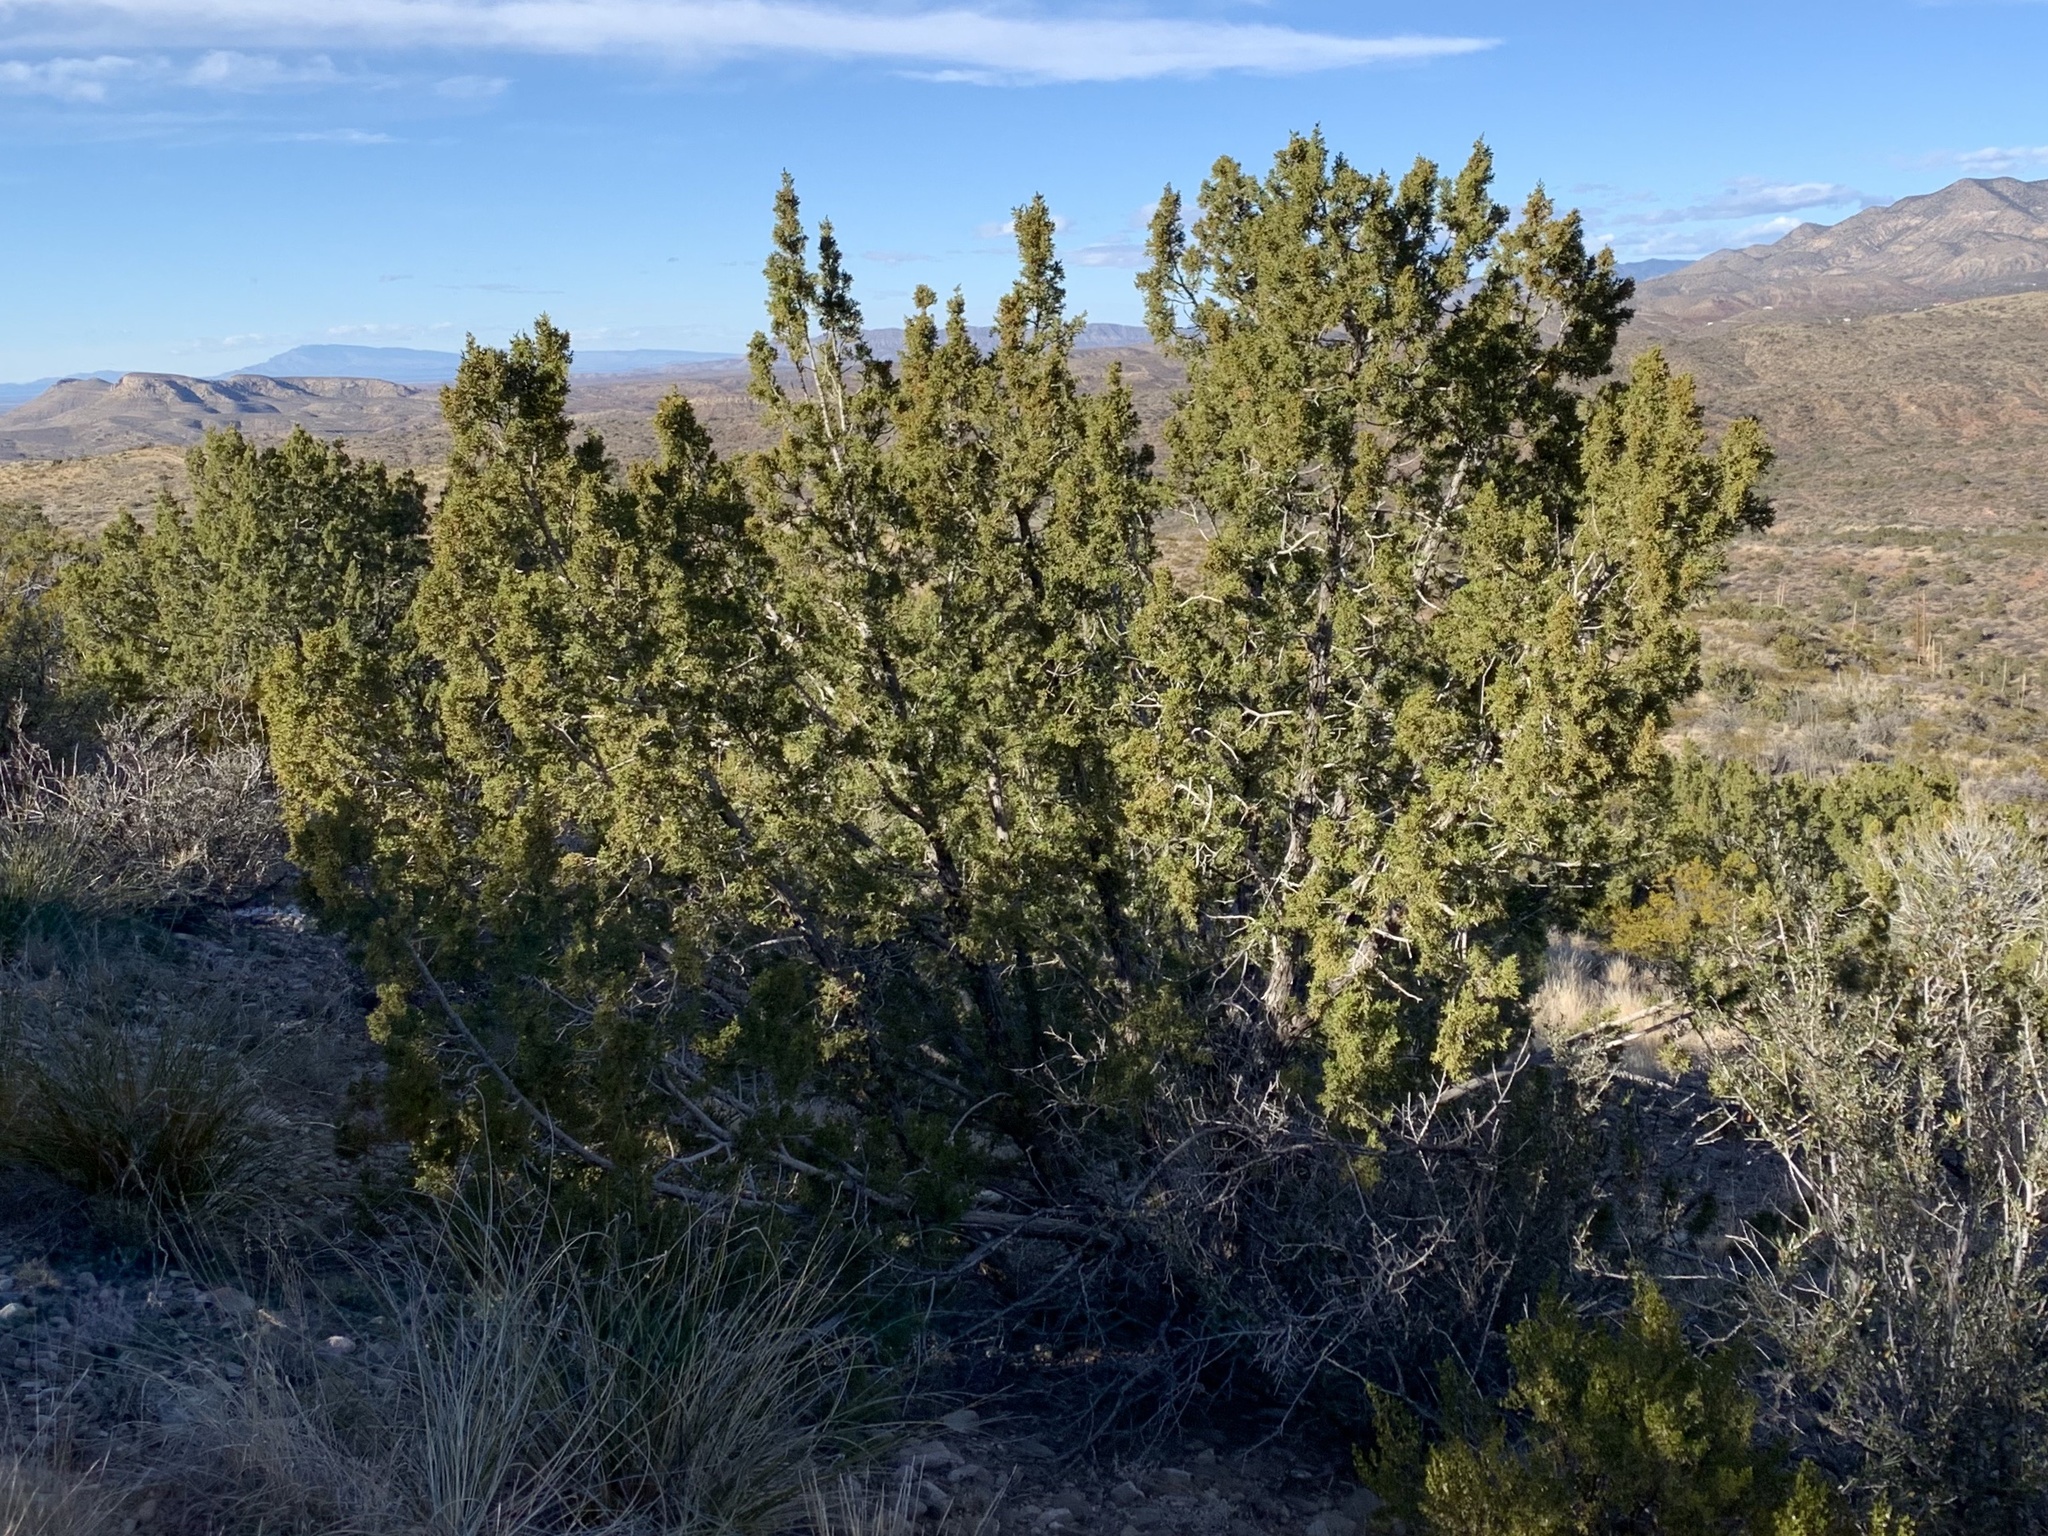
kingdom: Plantae
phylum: Tracheophyta
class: Pinopsida
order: Pinales
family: Cupressaceae
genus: Juniperus
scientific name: Juniperus monosperma
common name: One-seed juniper
